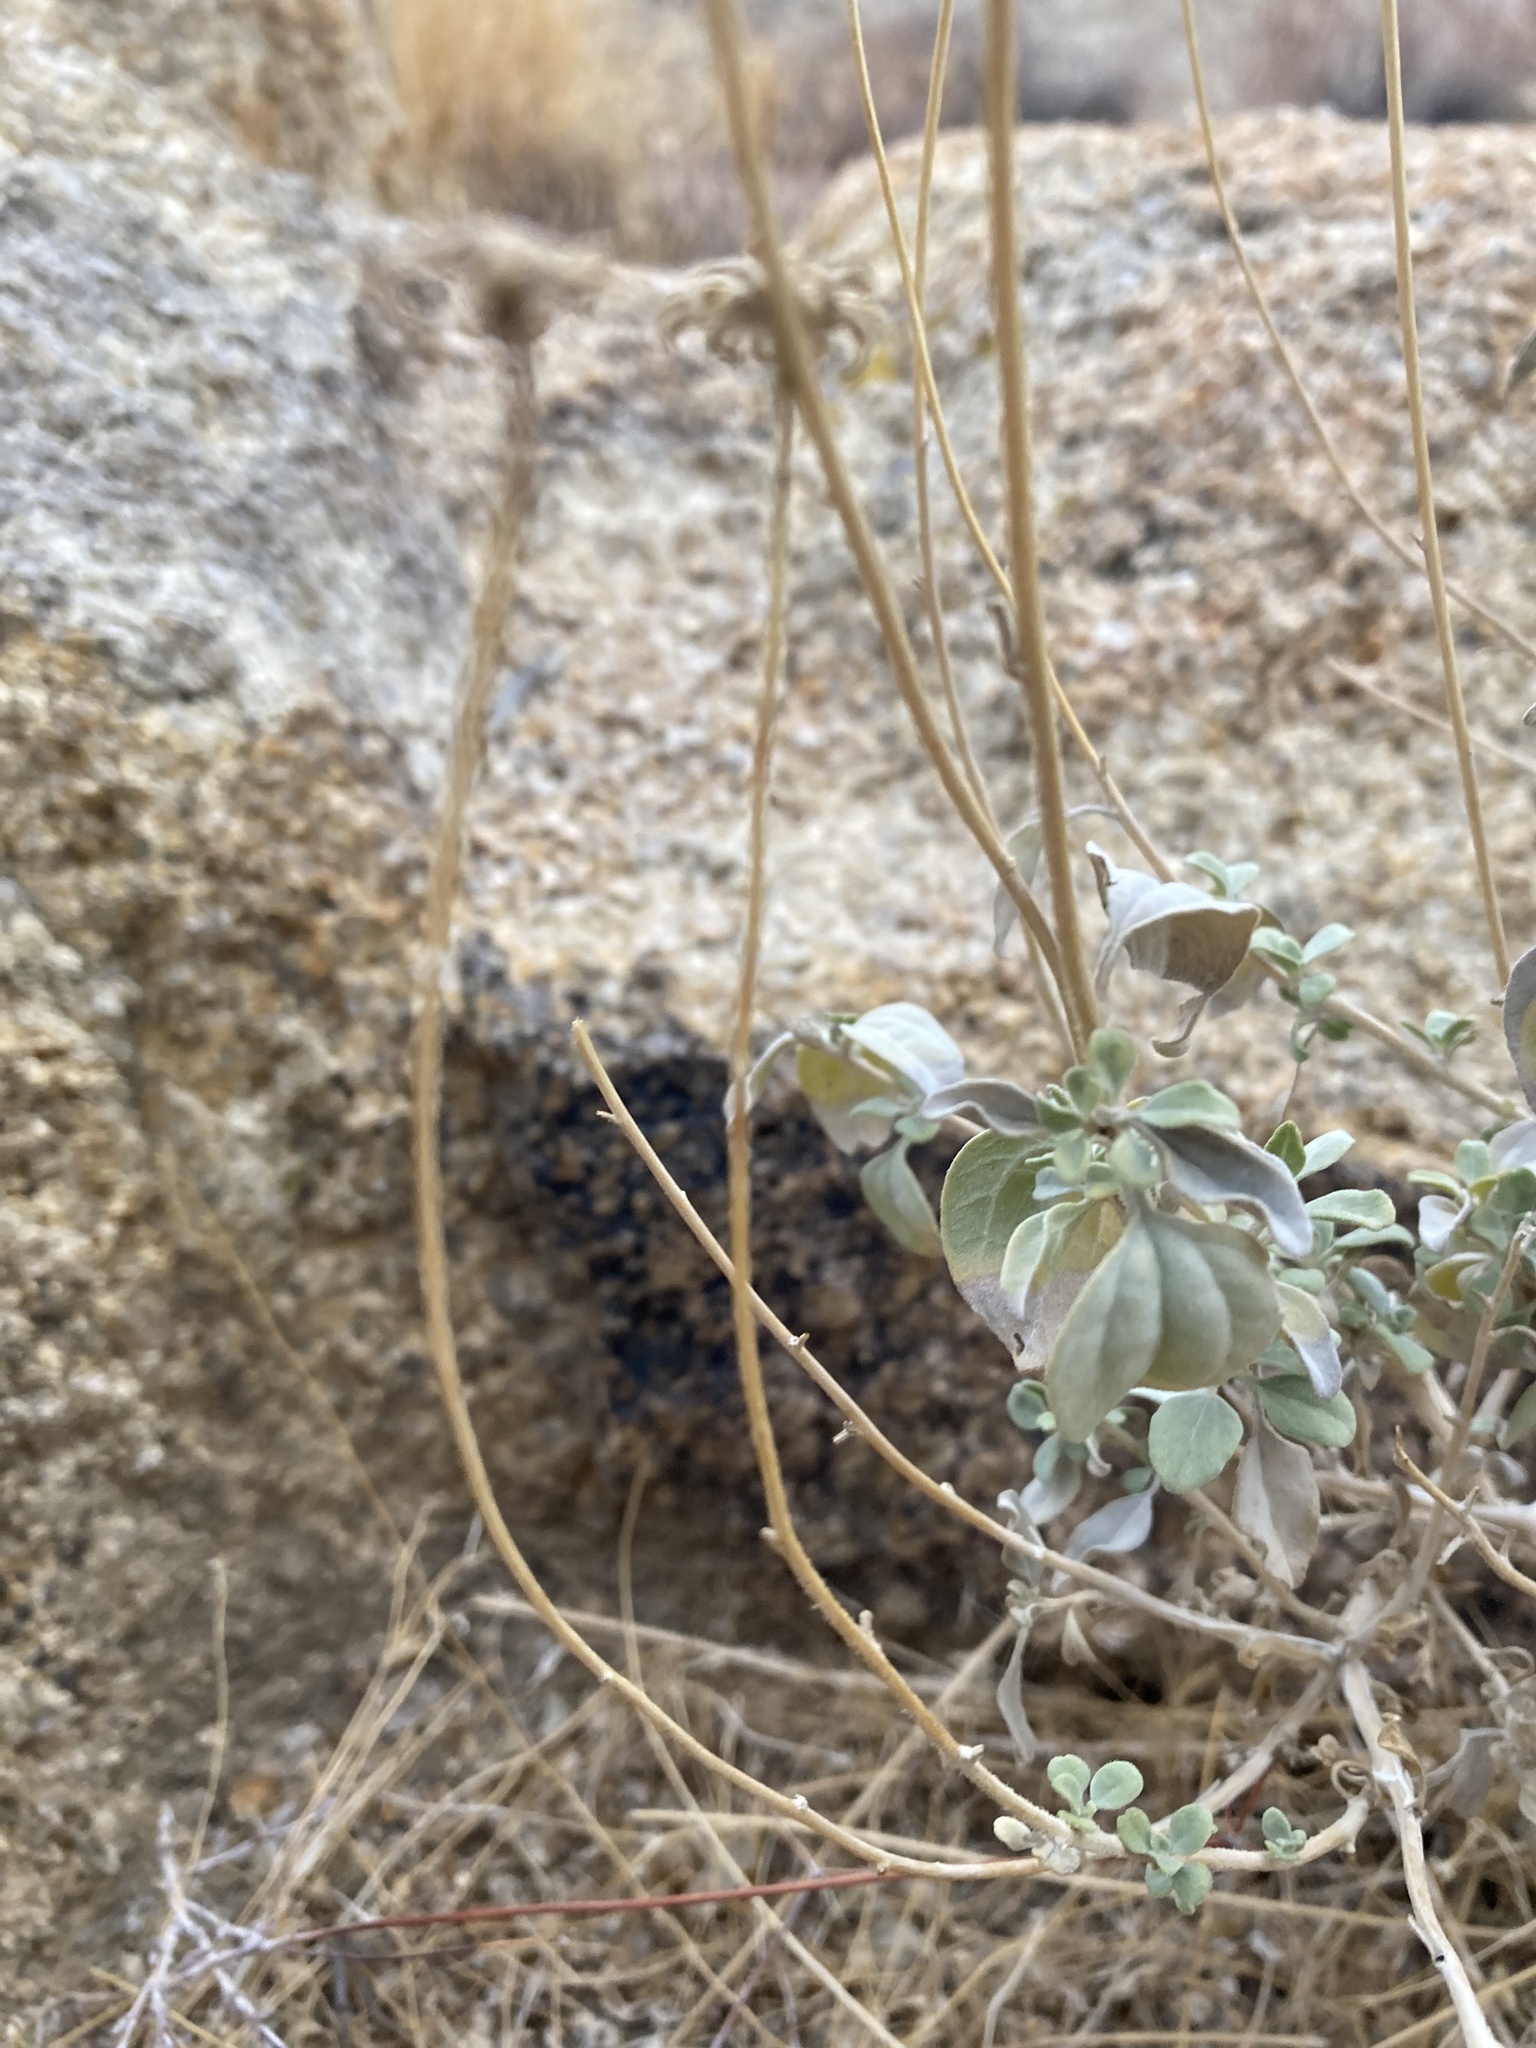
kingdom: Plantae
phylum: Tracheophyta
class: Magnoliopsida
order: Asterales
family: Asteraceae
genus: Encelia
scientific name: Encelia actoni
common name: Acton encelia
